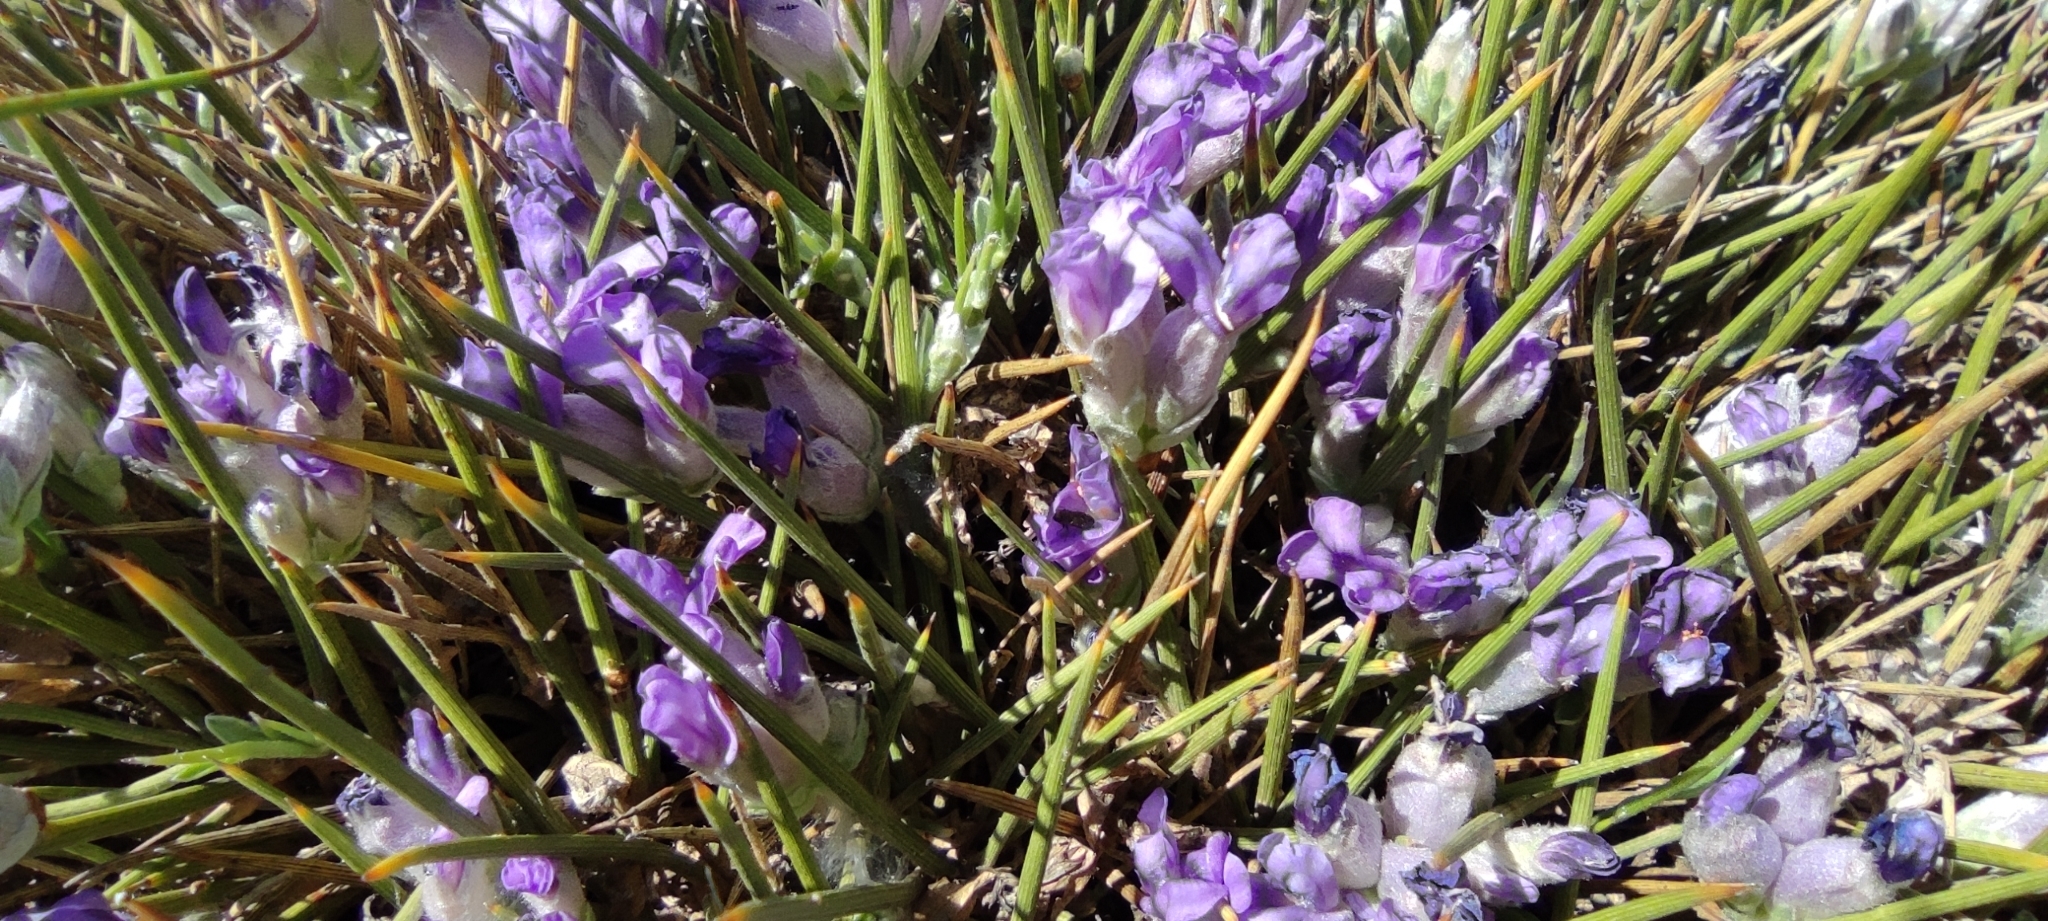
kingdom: Plantae
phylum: Tracheophyta
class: Magnoliopsida
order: Fabales
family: Fabaceae
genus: Erinacea
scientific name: Erinacea anthyllis
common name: Hedgehog-broom
